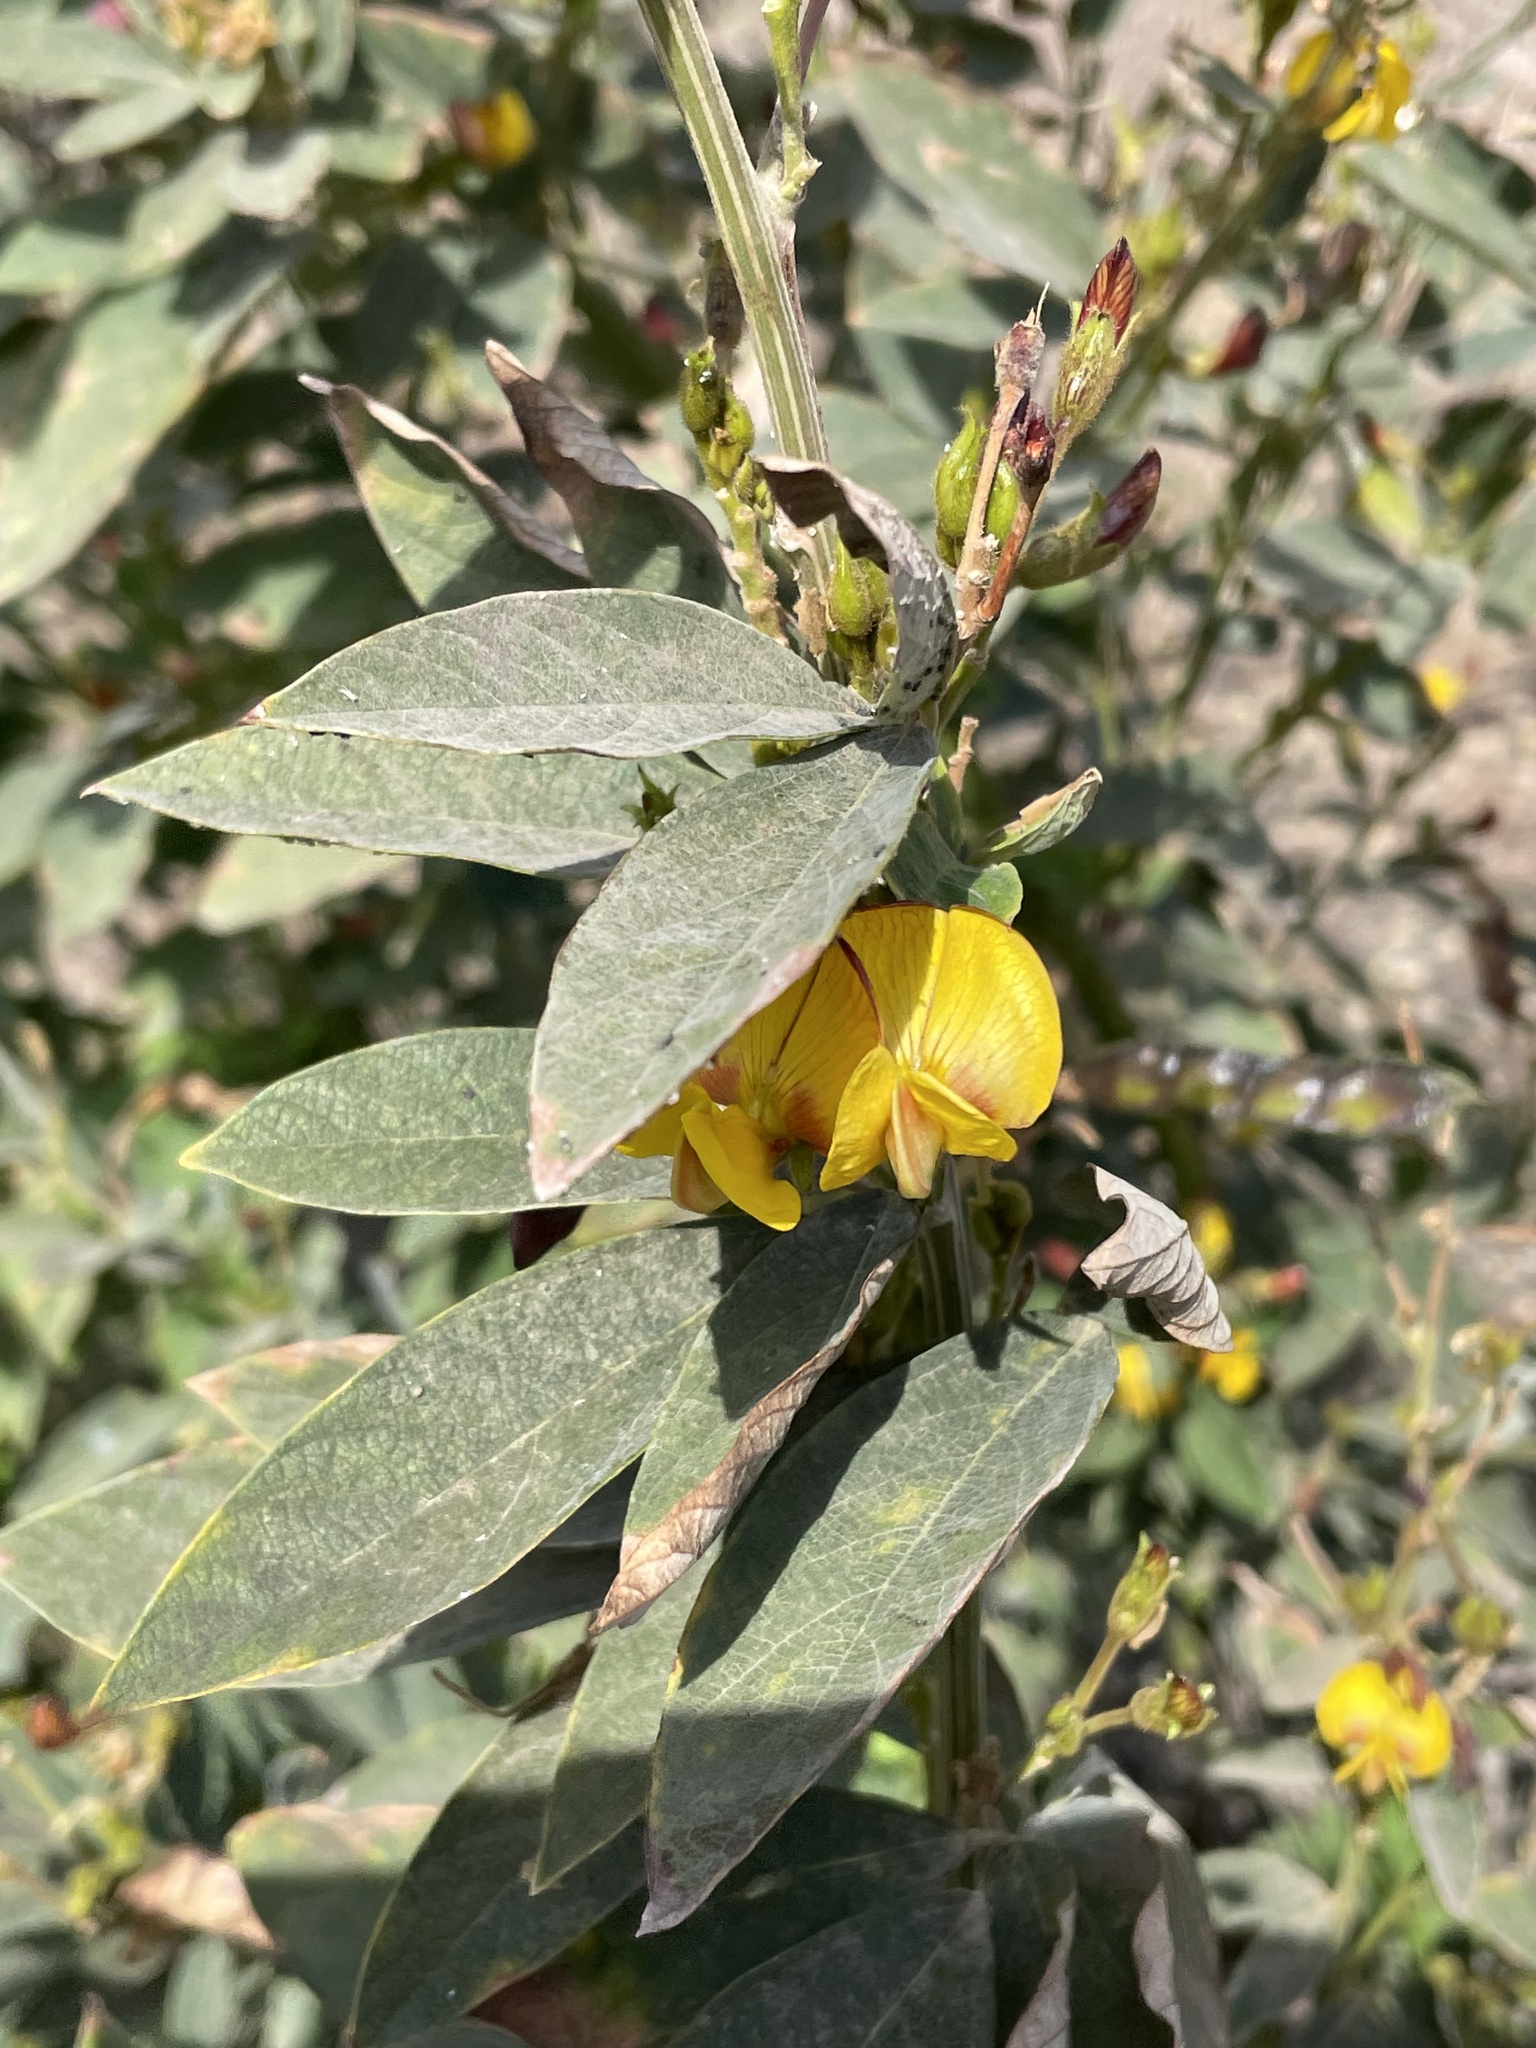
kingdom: Plantae
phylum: Tracheophyta
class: Magnoliopsida
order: Fabales
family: Fabaceae
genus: Cajanus
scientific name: Cajanus cajan
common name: Pigeonpea
